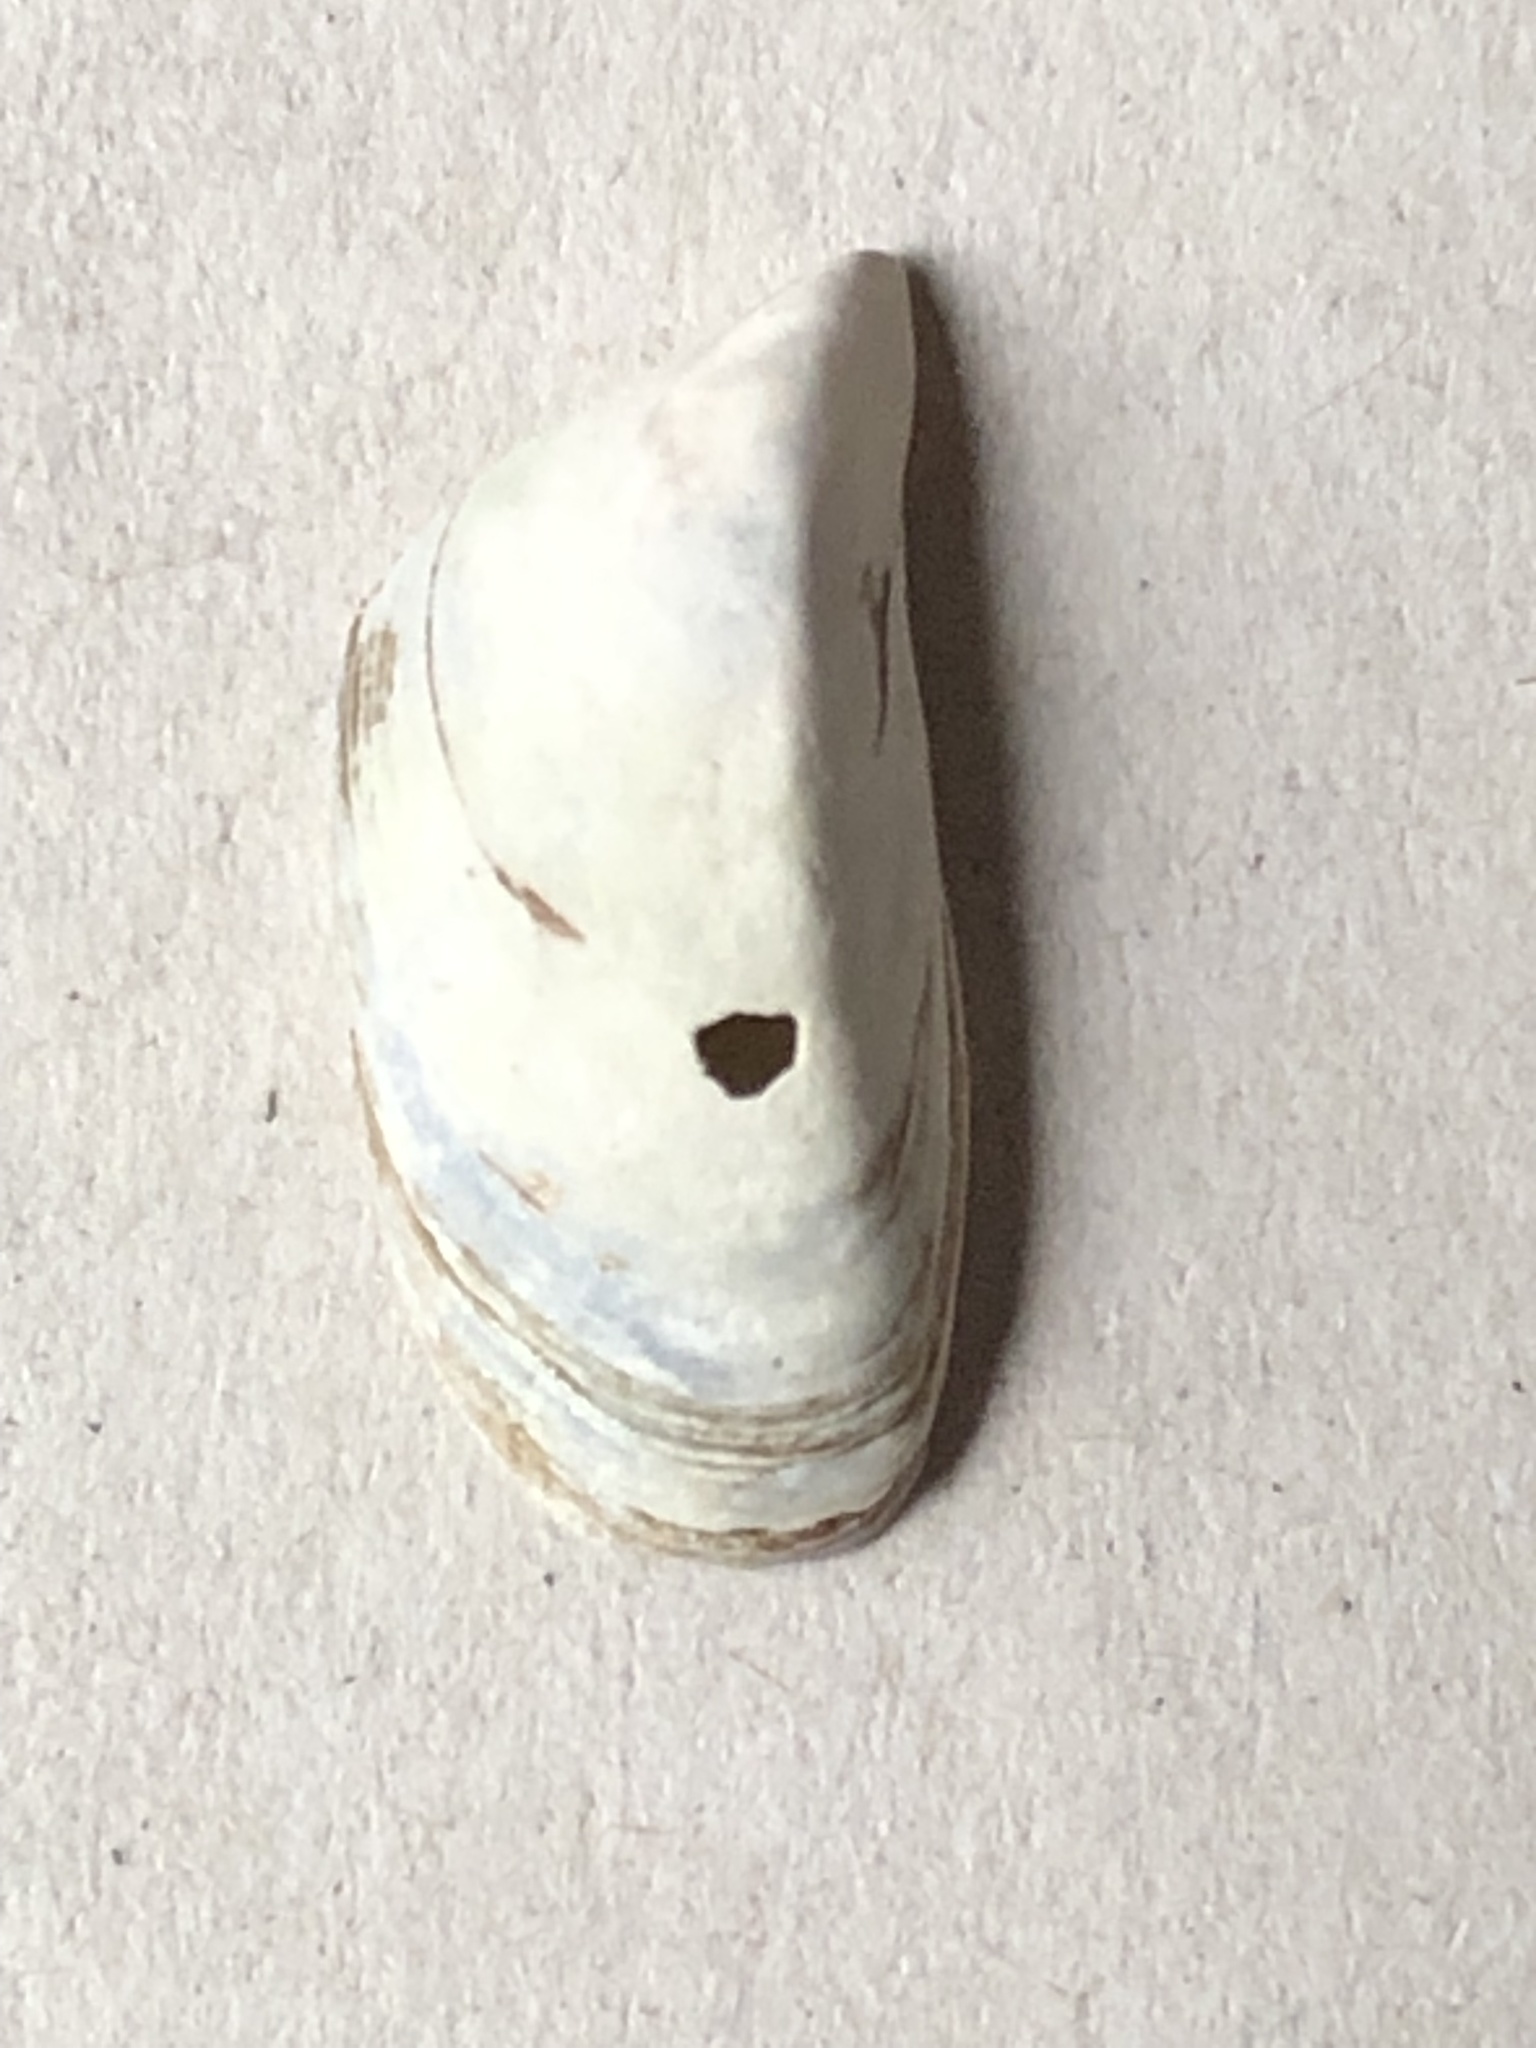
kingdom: Animalia
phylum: Mollusca
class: Bivalvia
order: Myida
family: Dreissenidae
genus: Dreissena
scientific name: Dreissena polymorpha
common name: Zebra mussel
